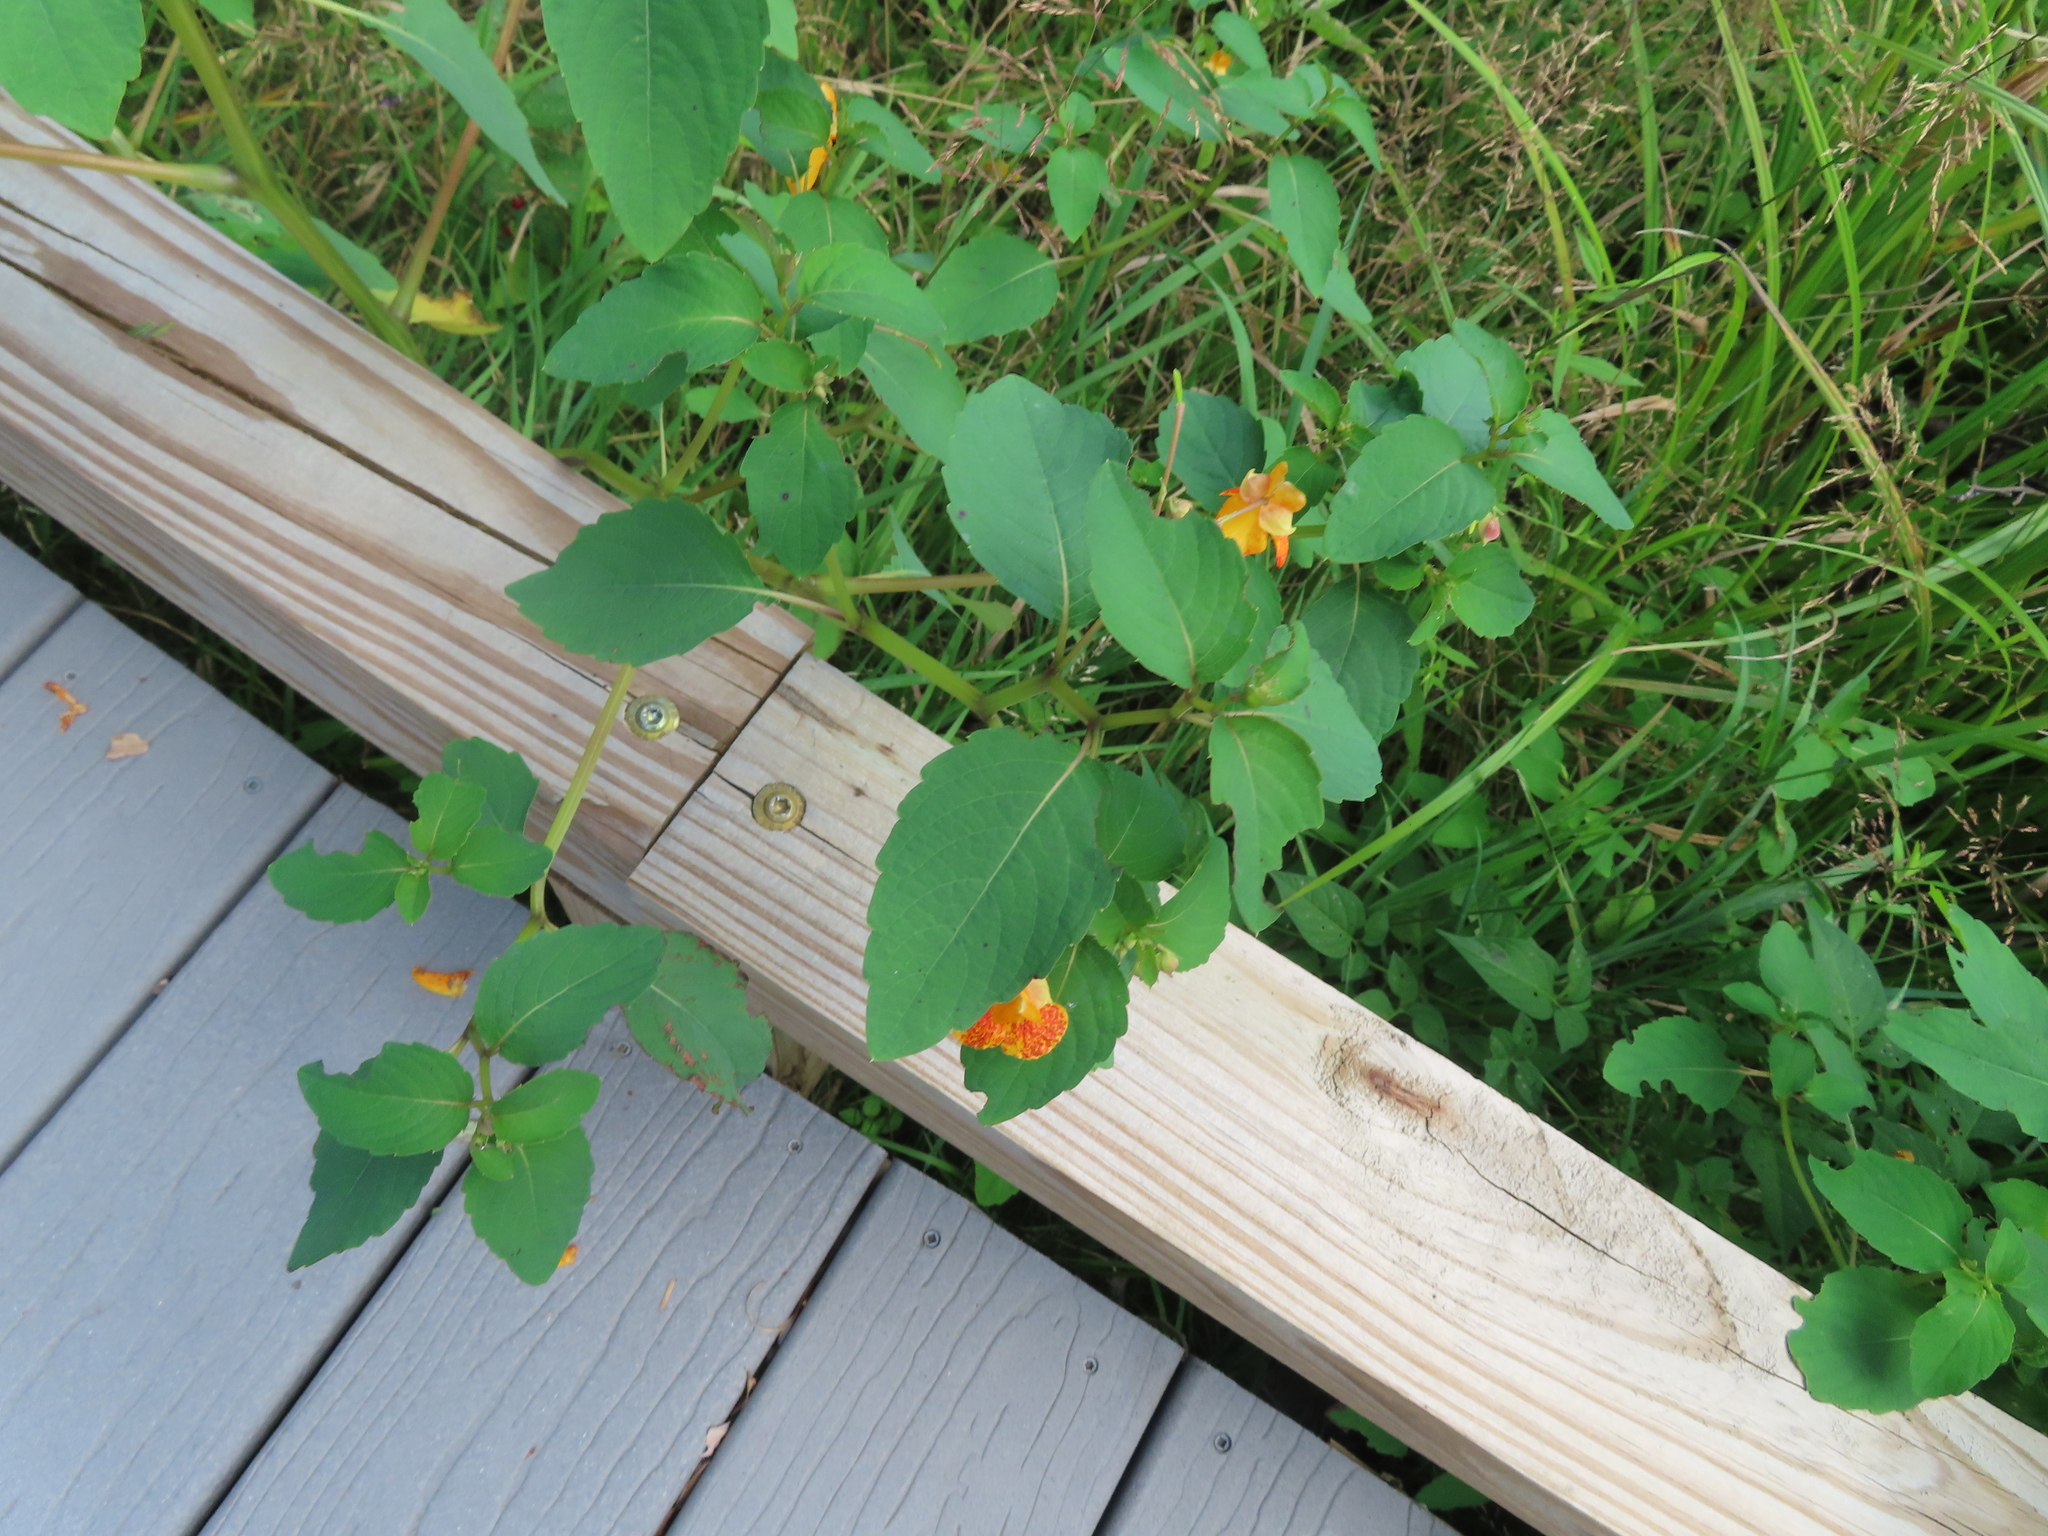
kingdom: Plantae
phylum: Tracheophyta
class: Magnoliopsida
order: Ericales
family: Balsaminaceae
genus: Impatiens
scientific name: Impatiens capensis
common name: Orange balsam
